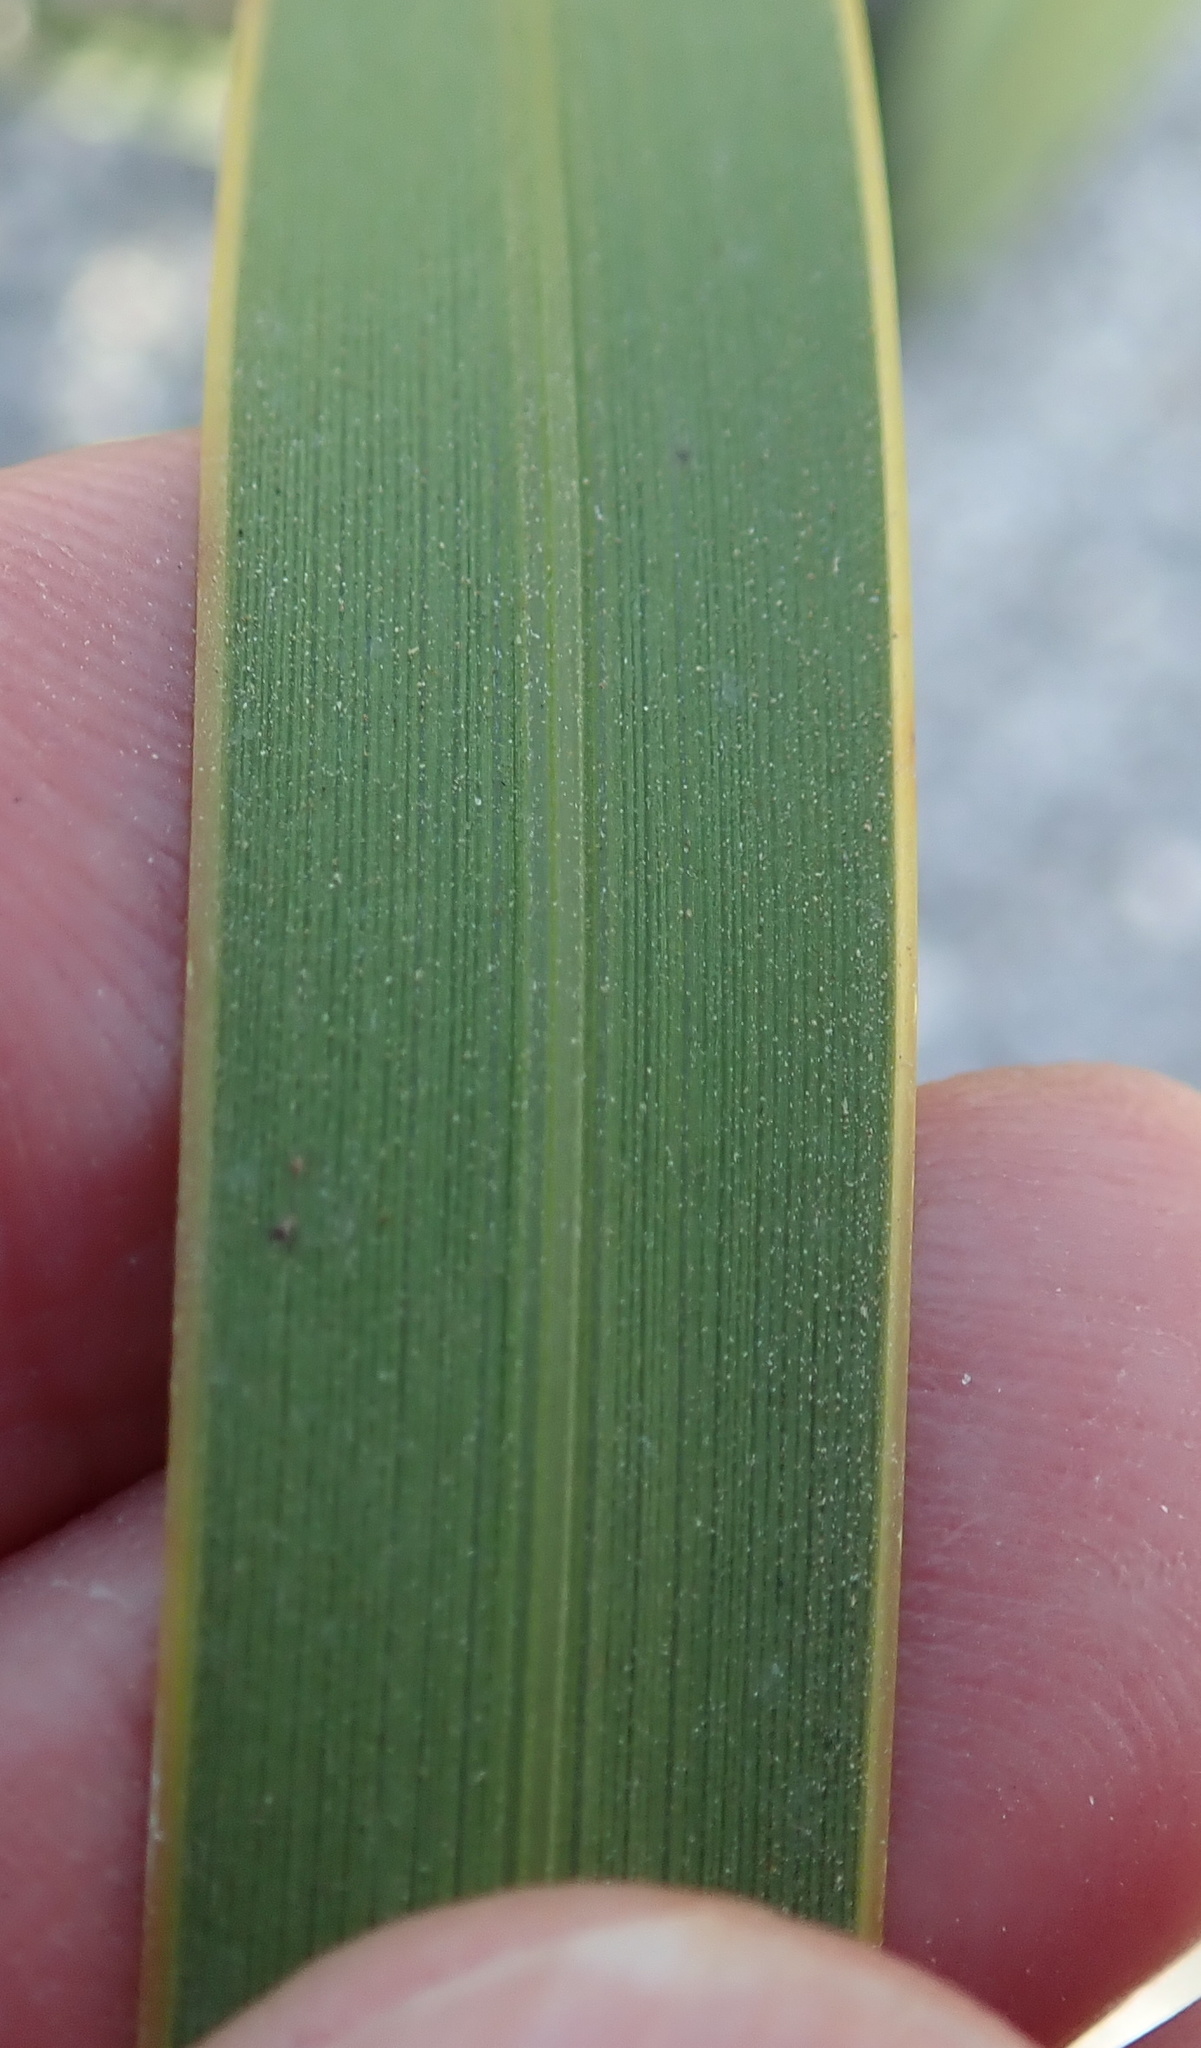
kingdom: Plantae
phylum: Tracheophyta
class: Liliopsida
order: Asparagales
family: Iridaceae
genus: Watsonia
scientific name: Watsonia schlechteri
